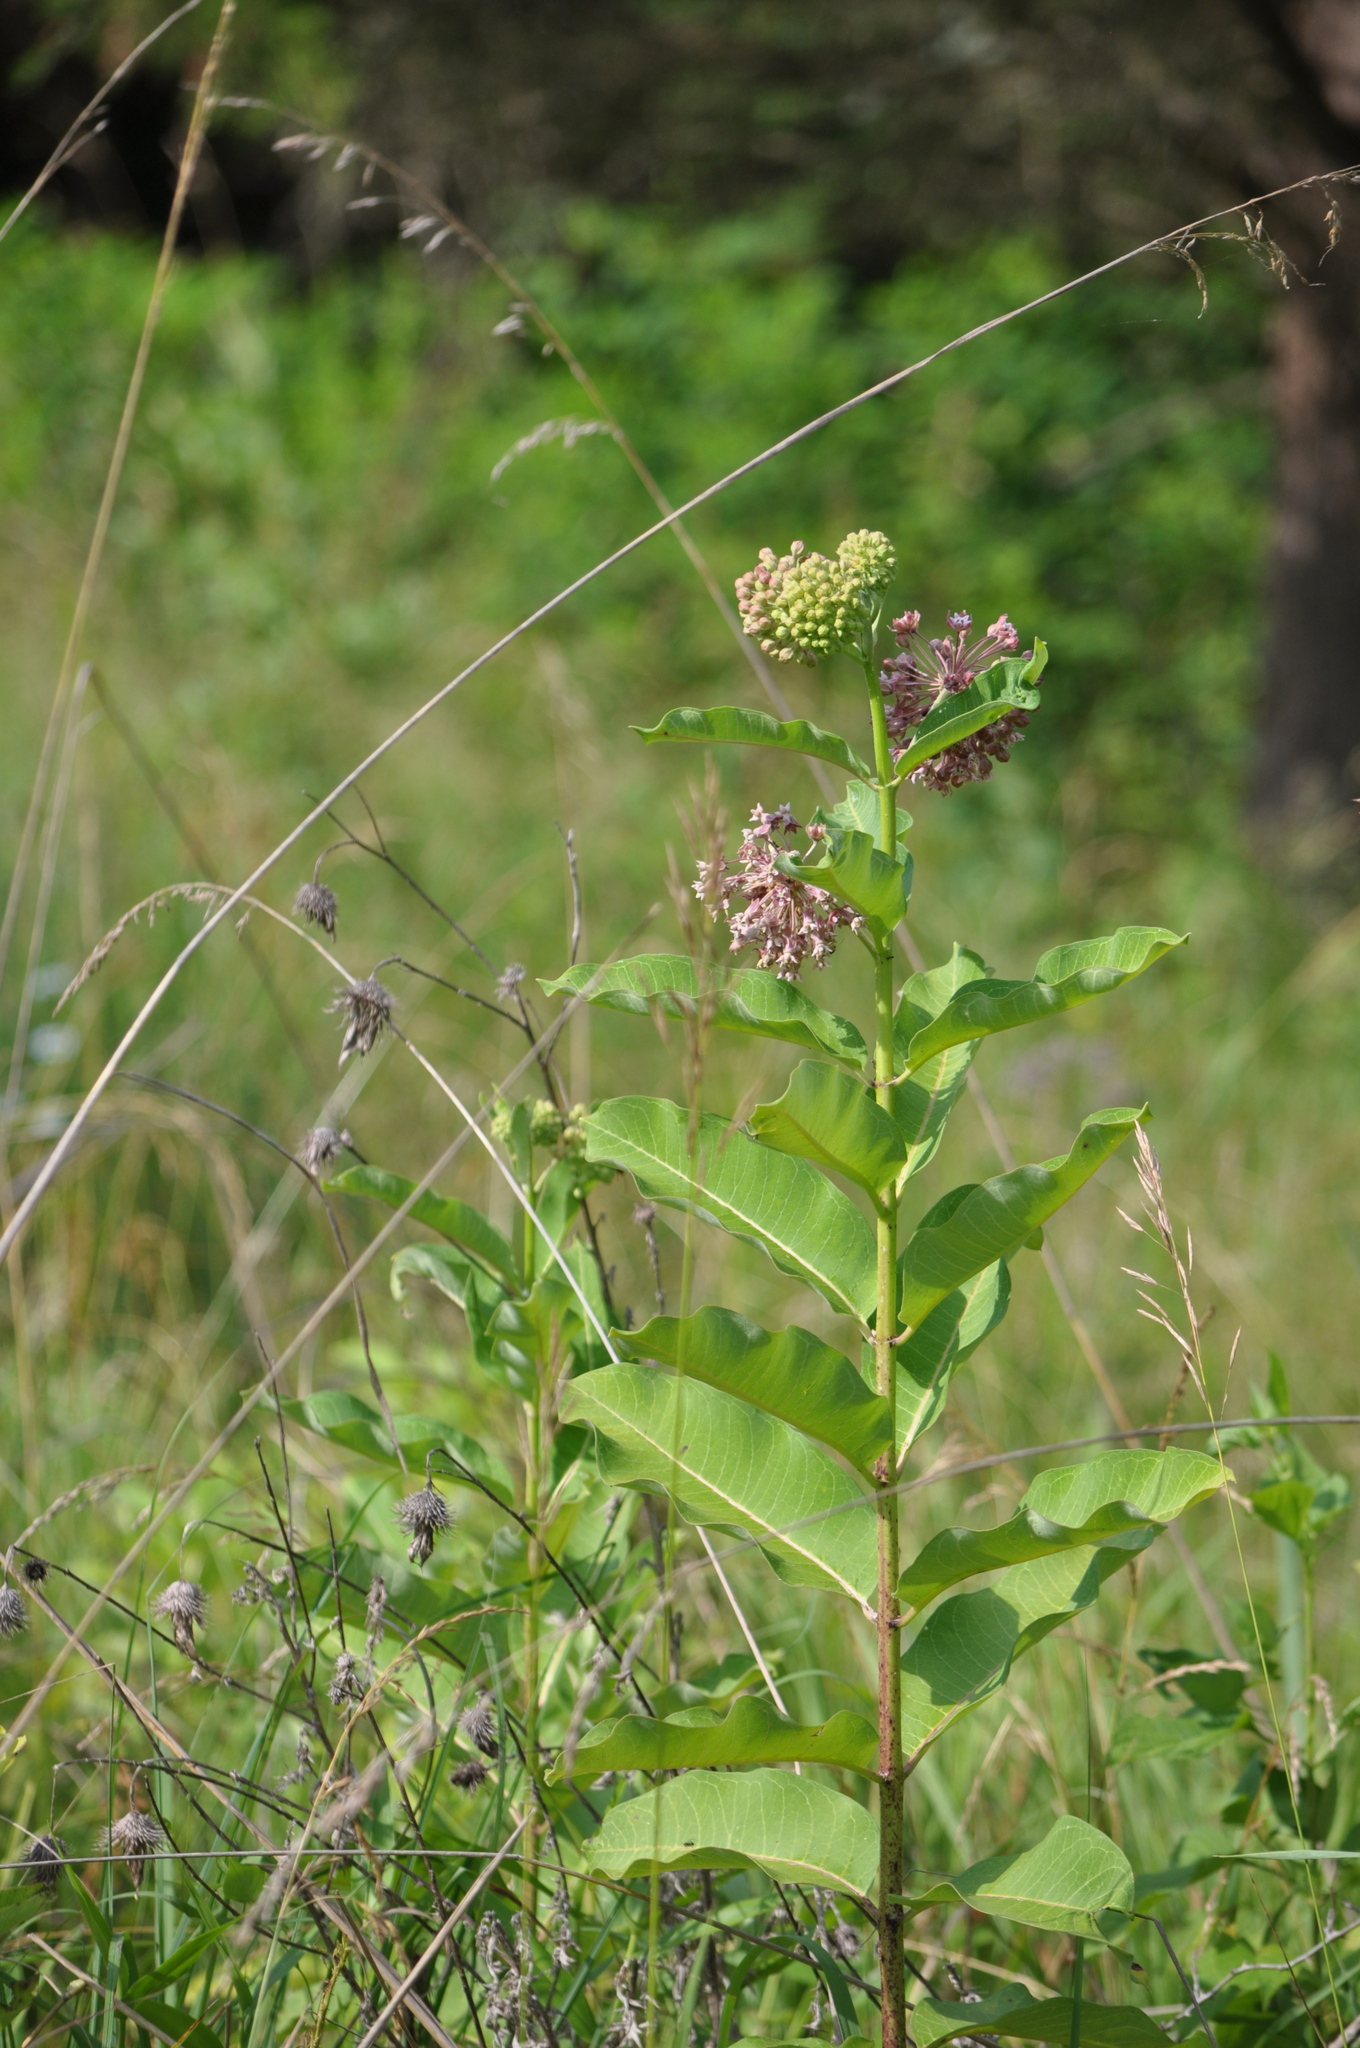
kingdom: Plantae
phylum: Tracheophyta
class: Magnoliopsida
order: Gentianales
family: Apocynaceae
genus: Asclepias
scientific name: Asclepias syriaca
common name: Common milkweed
